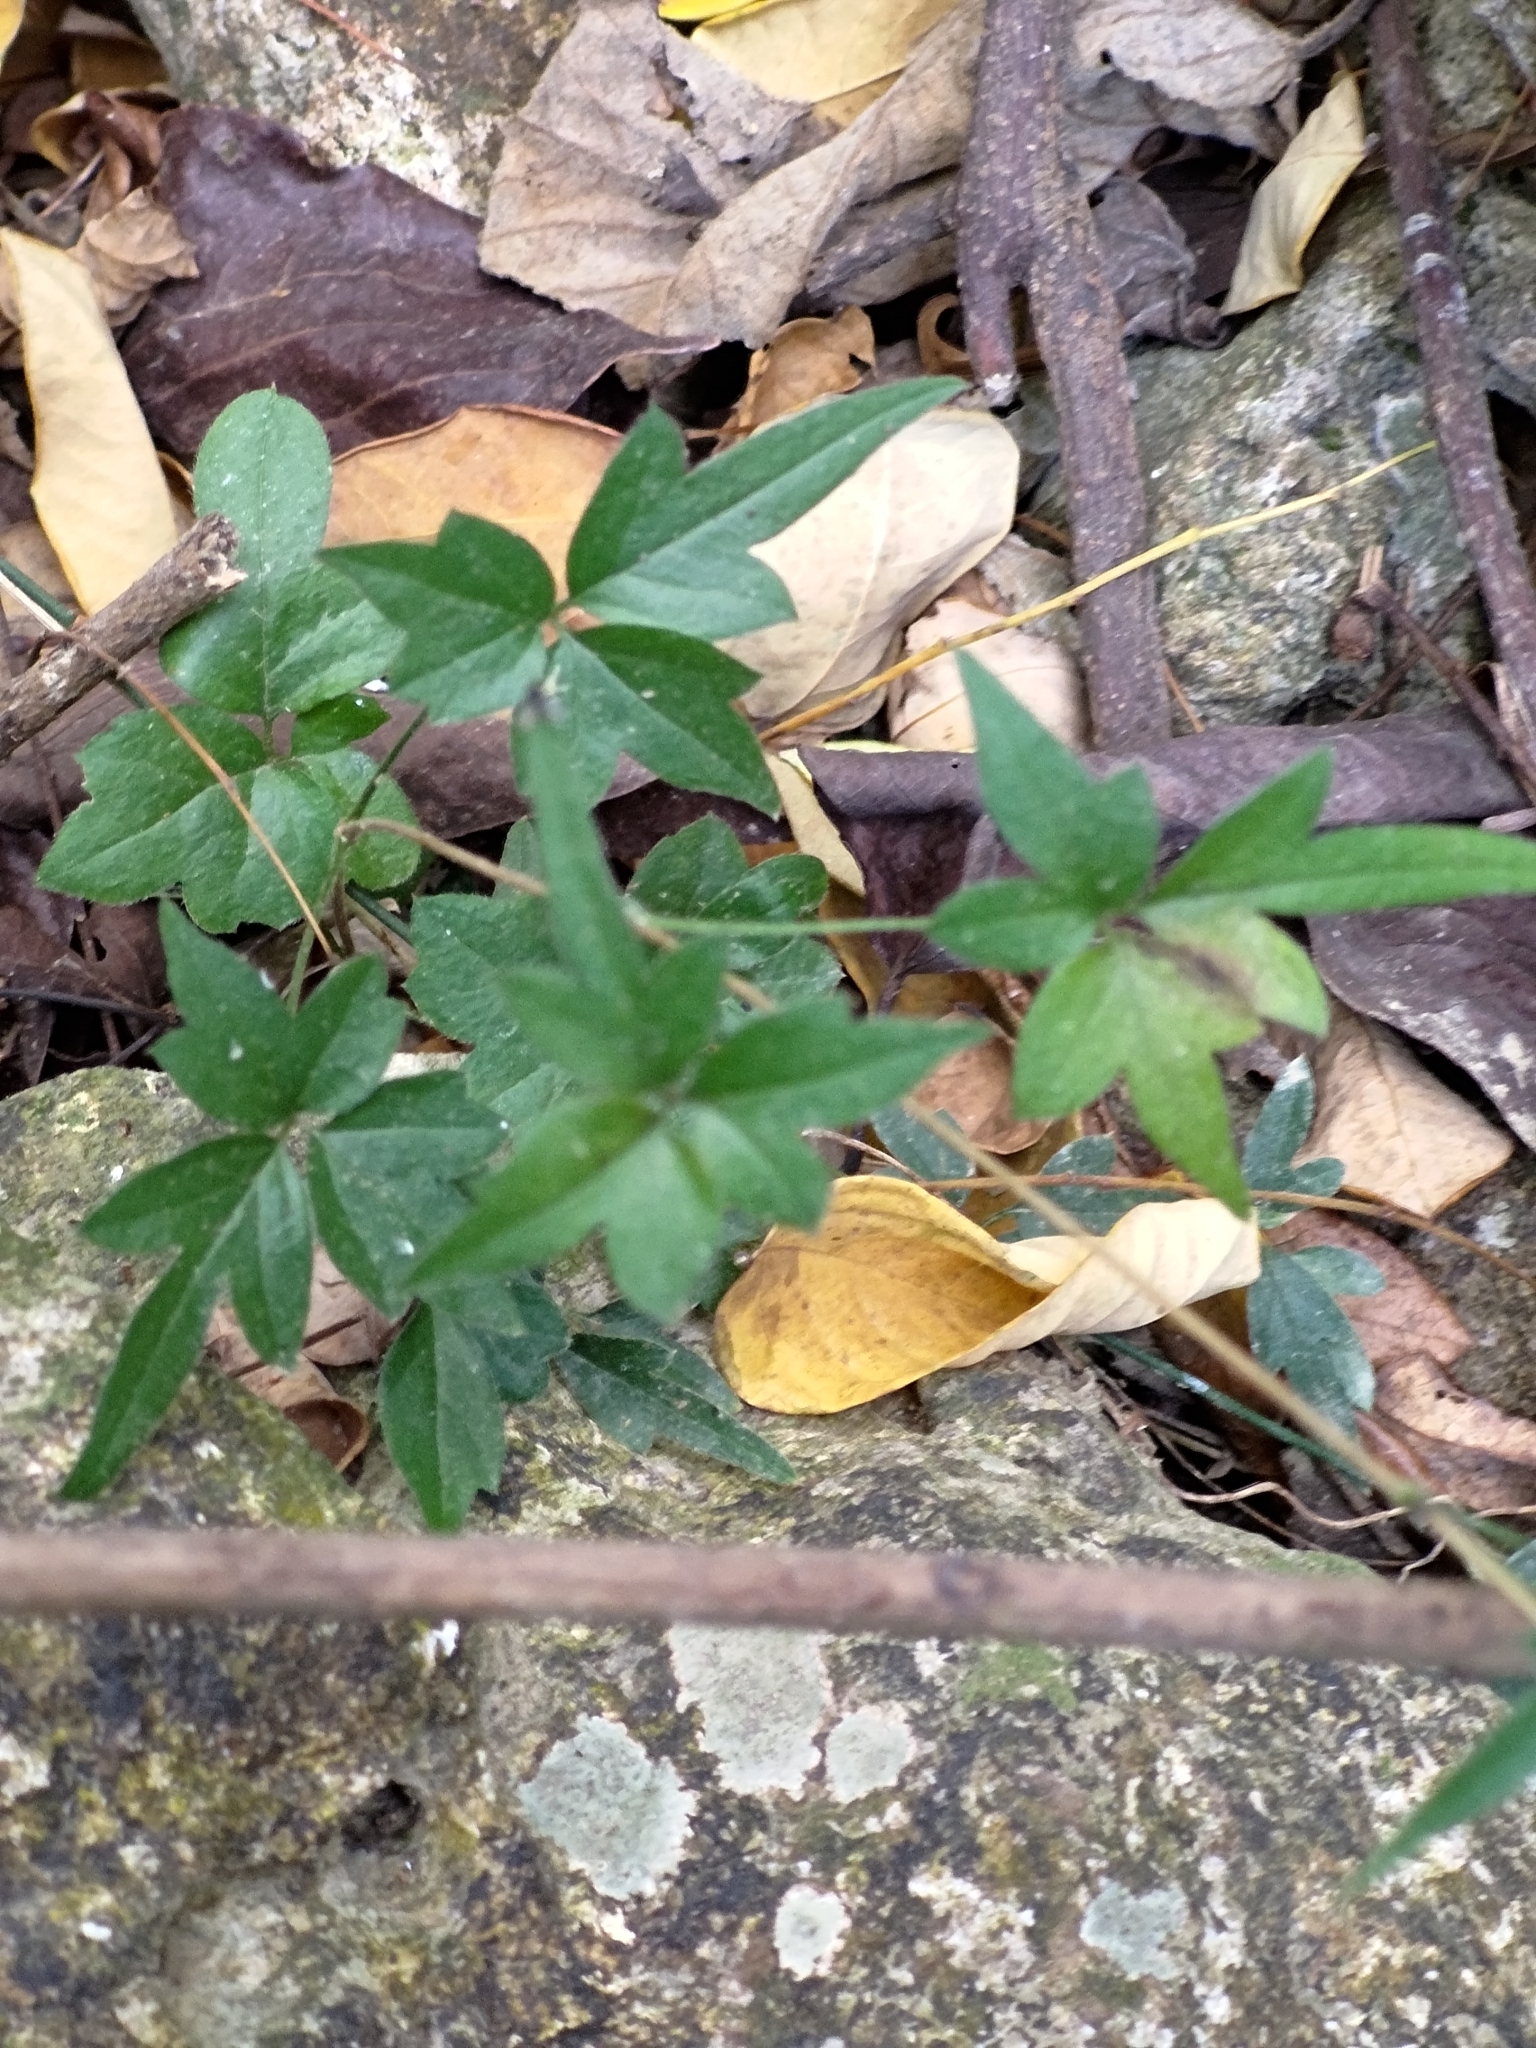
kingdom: Plantae
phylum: Tracheophyta
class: Magnoliopsida
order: Ranunculales
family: Ranunculaceae
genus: Clematis
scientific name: Clematis formosana
